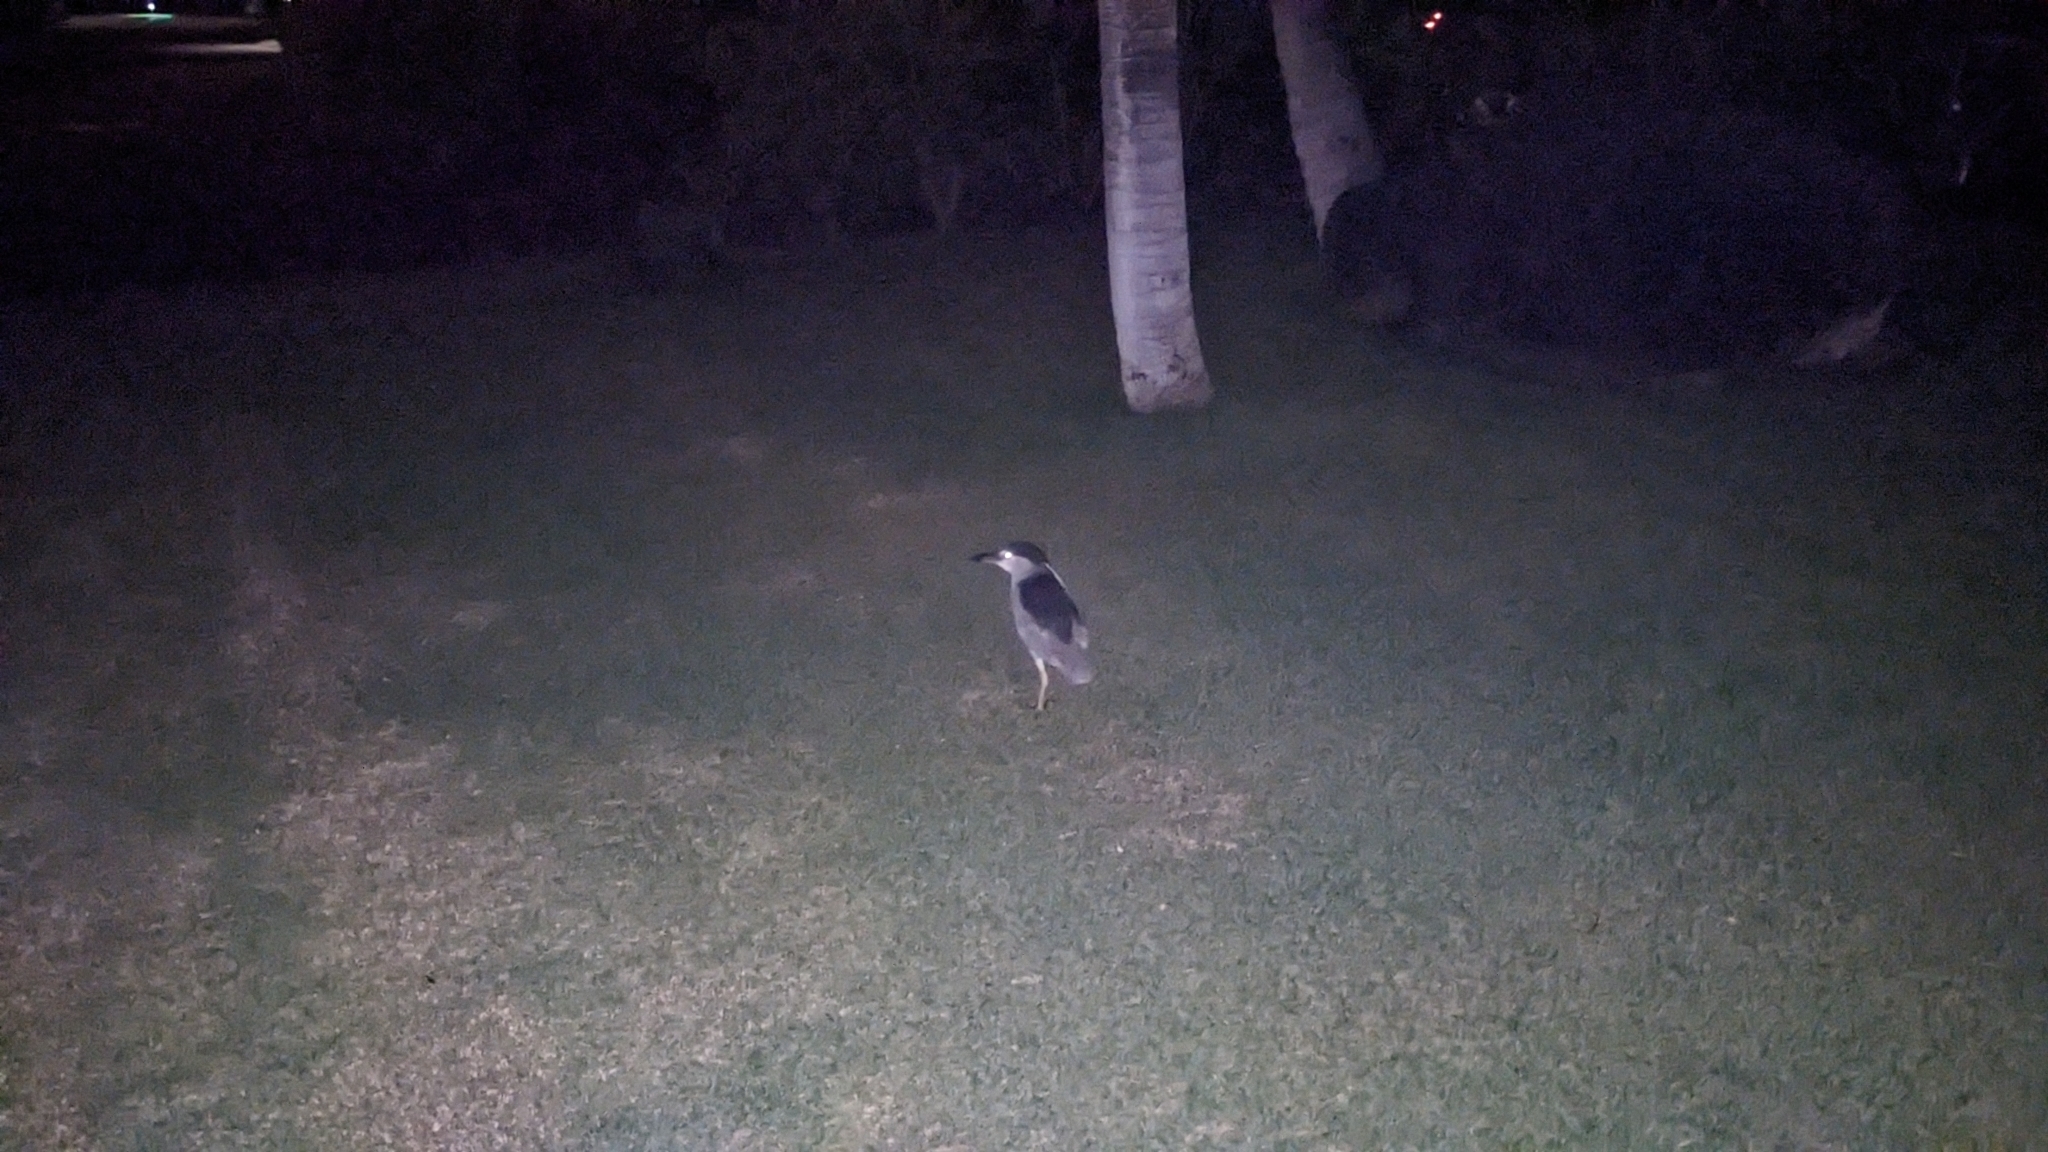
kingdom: Animalia
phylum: Chordata
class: Aves
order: Pelecaniformes
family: Ardeidae
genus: Nycticorax
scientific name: Nycticorax nycticorax
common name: Black-crowned night heron
